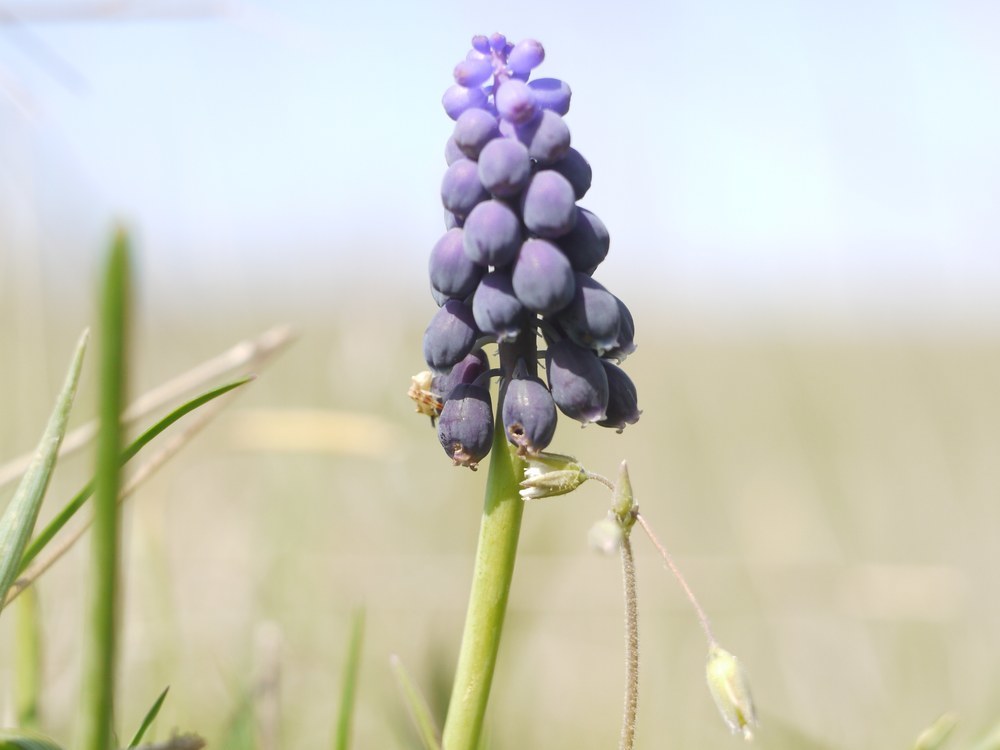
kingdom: Plantae
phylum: Tracheophyta
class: Liliopsida
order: Asparagales
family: Asparagaceae
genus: Muscari
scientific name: Muscari neglectum
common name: Grape-hyacinth
